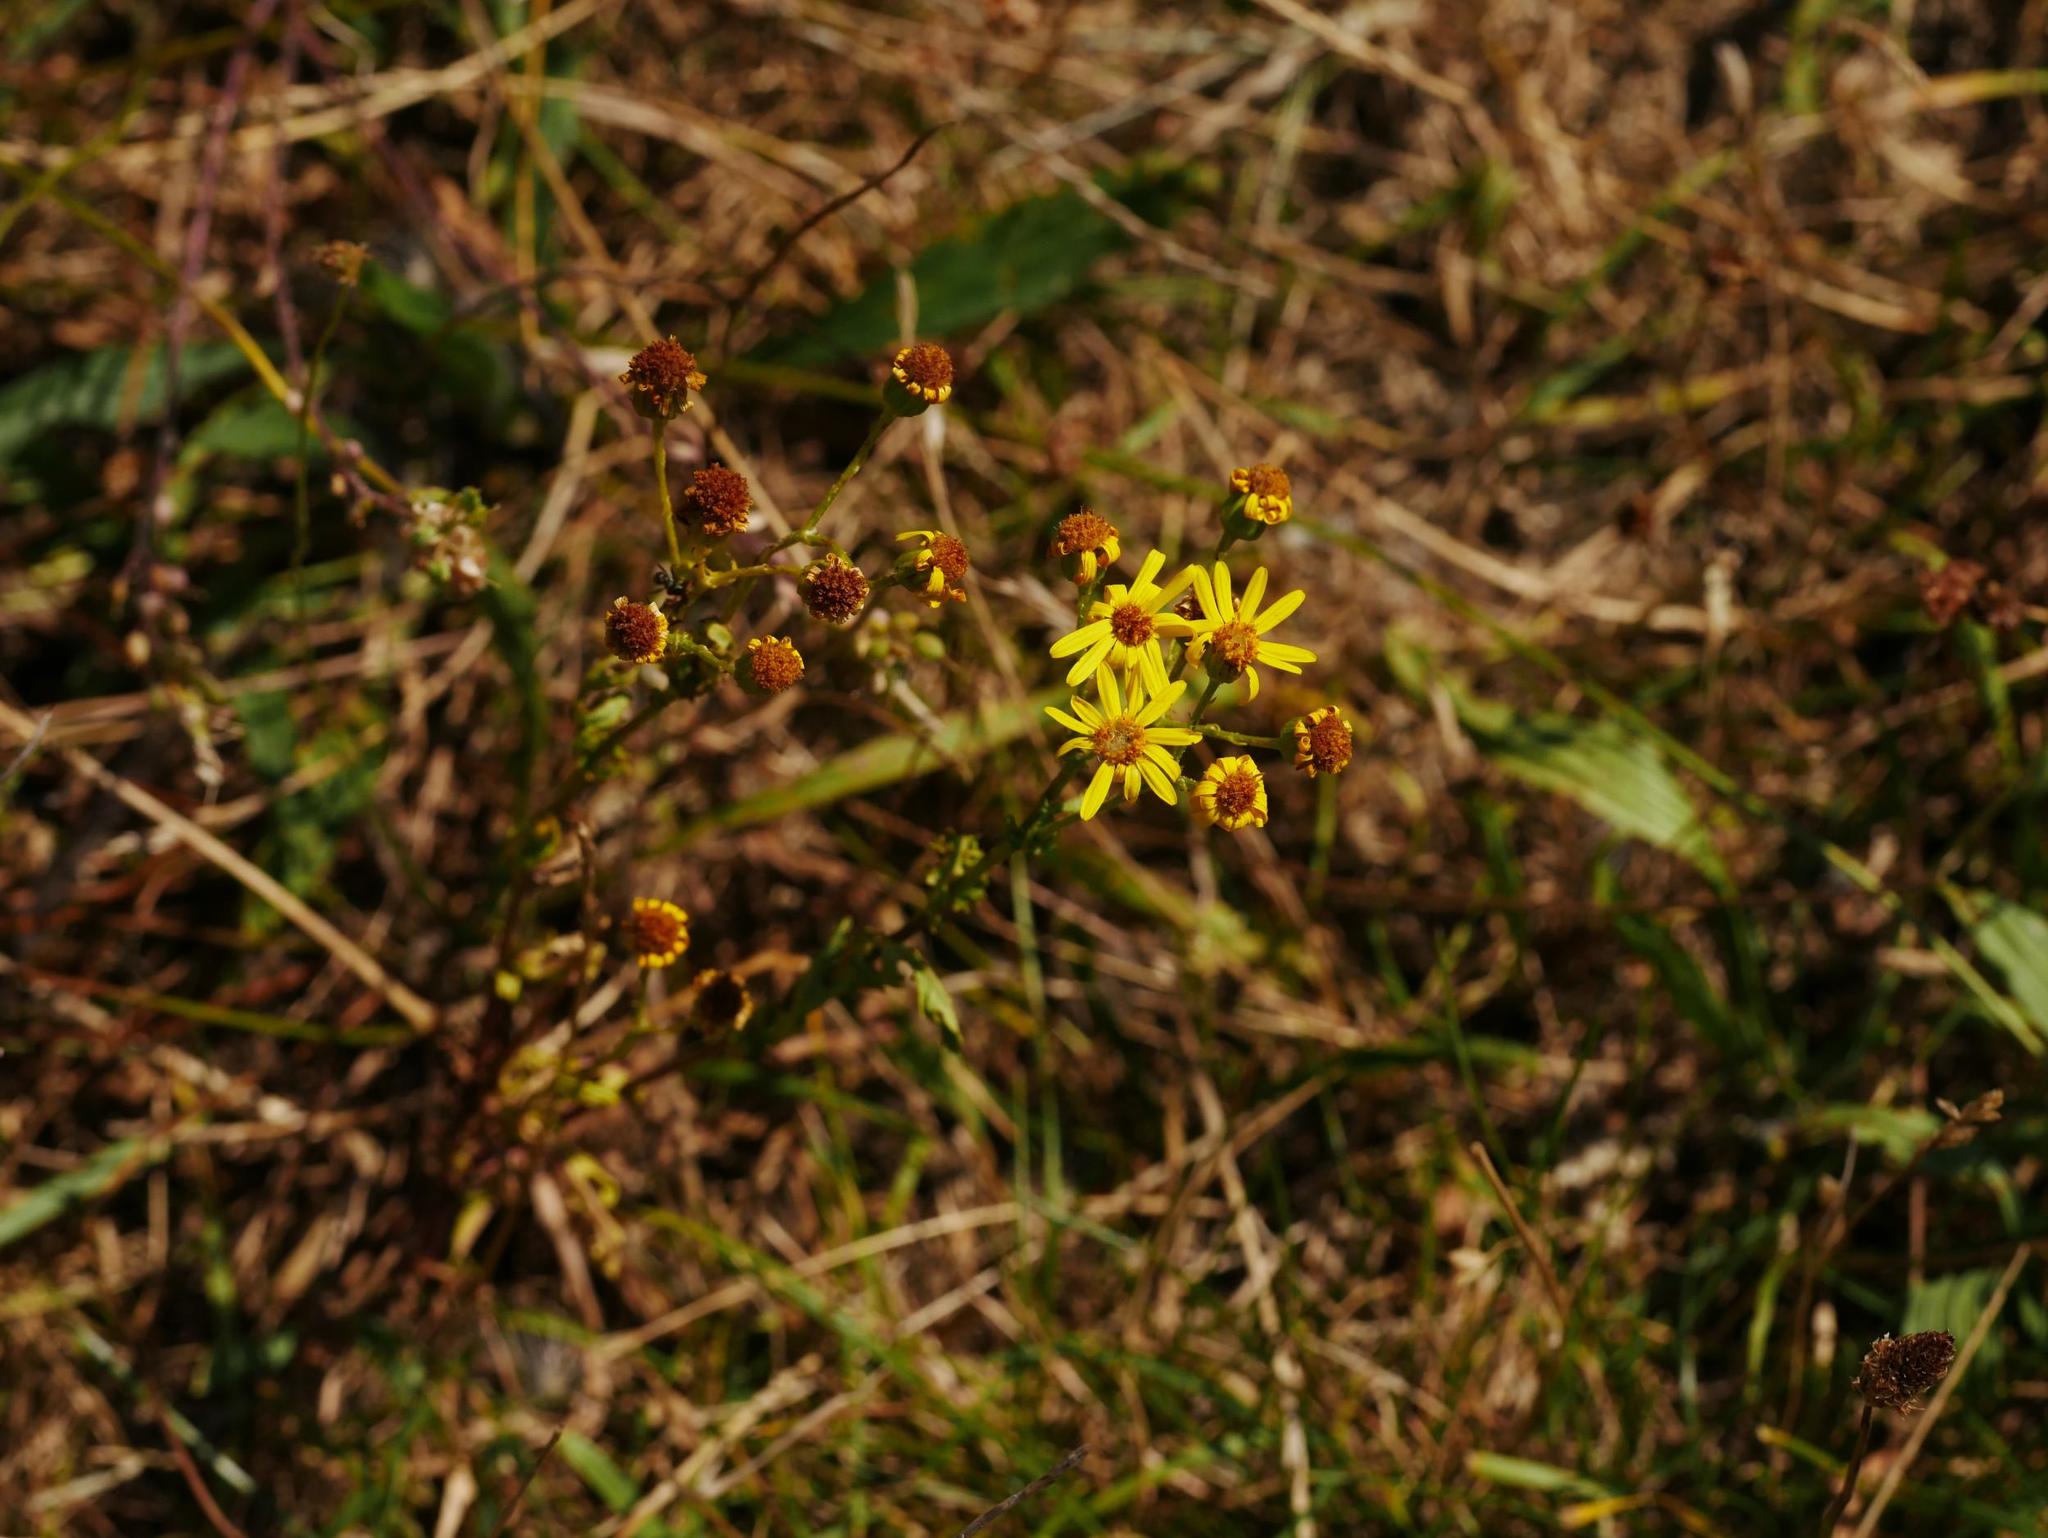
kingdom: Plantae
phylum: Tracheophyta
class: Magnoliopsida
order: Asterales
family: Asteraceae
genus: Jacobaea
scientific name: Jacobaea vulgaris
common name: Stinking willie
